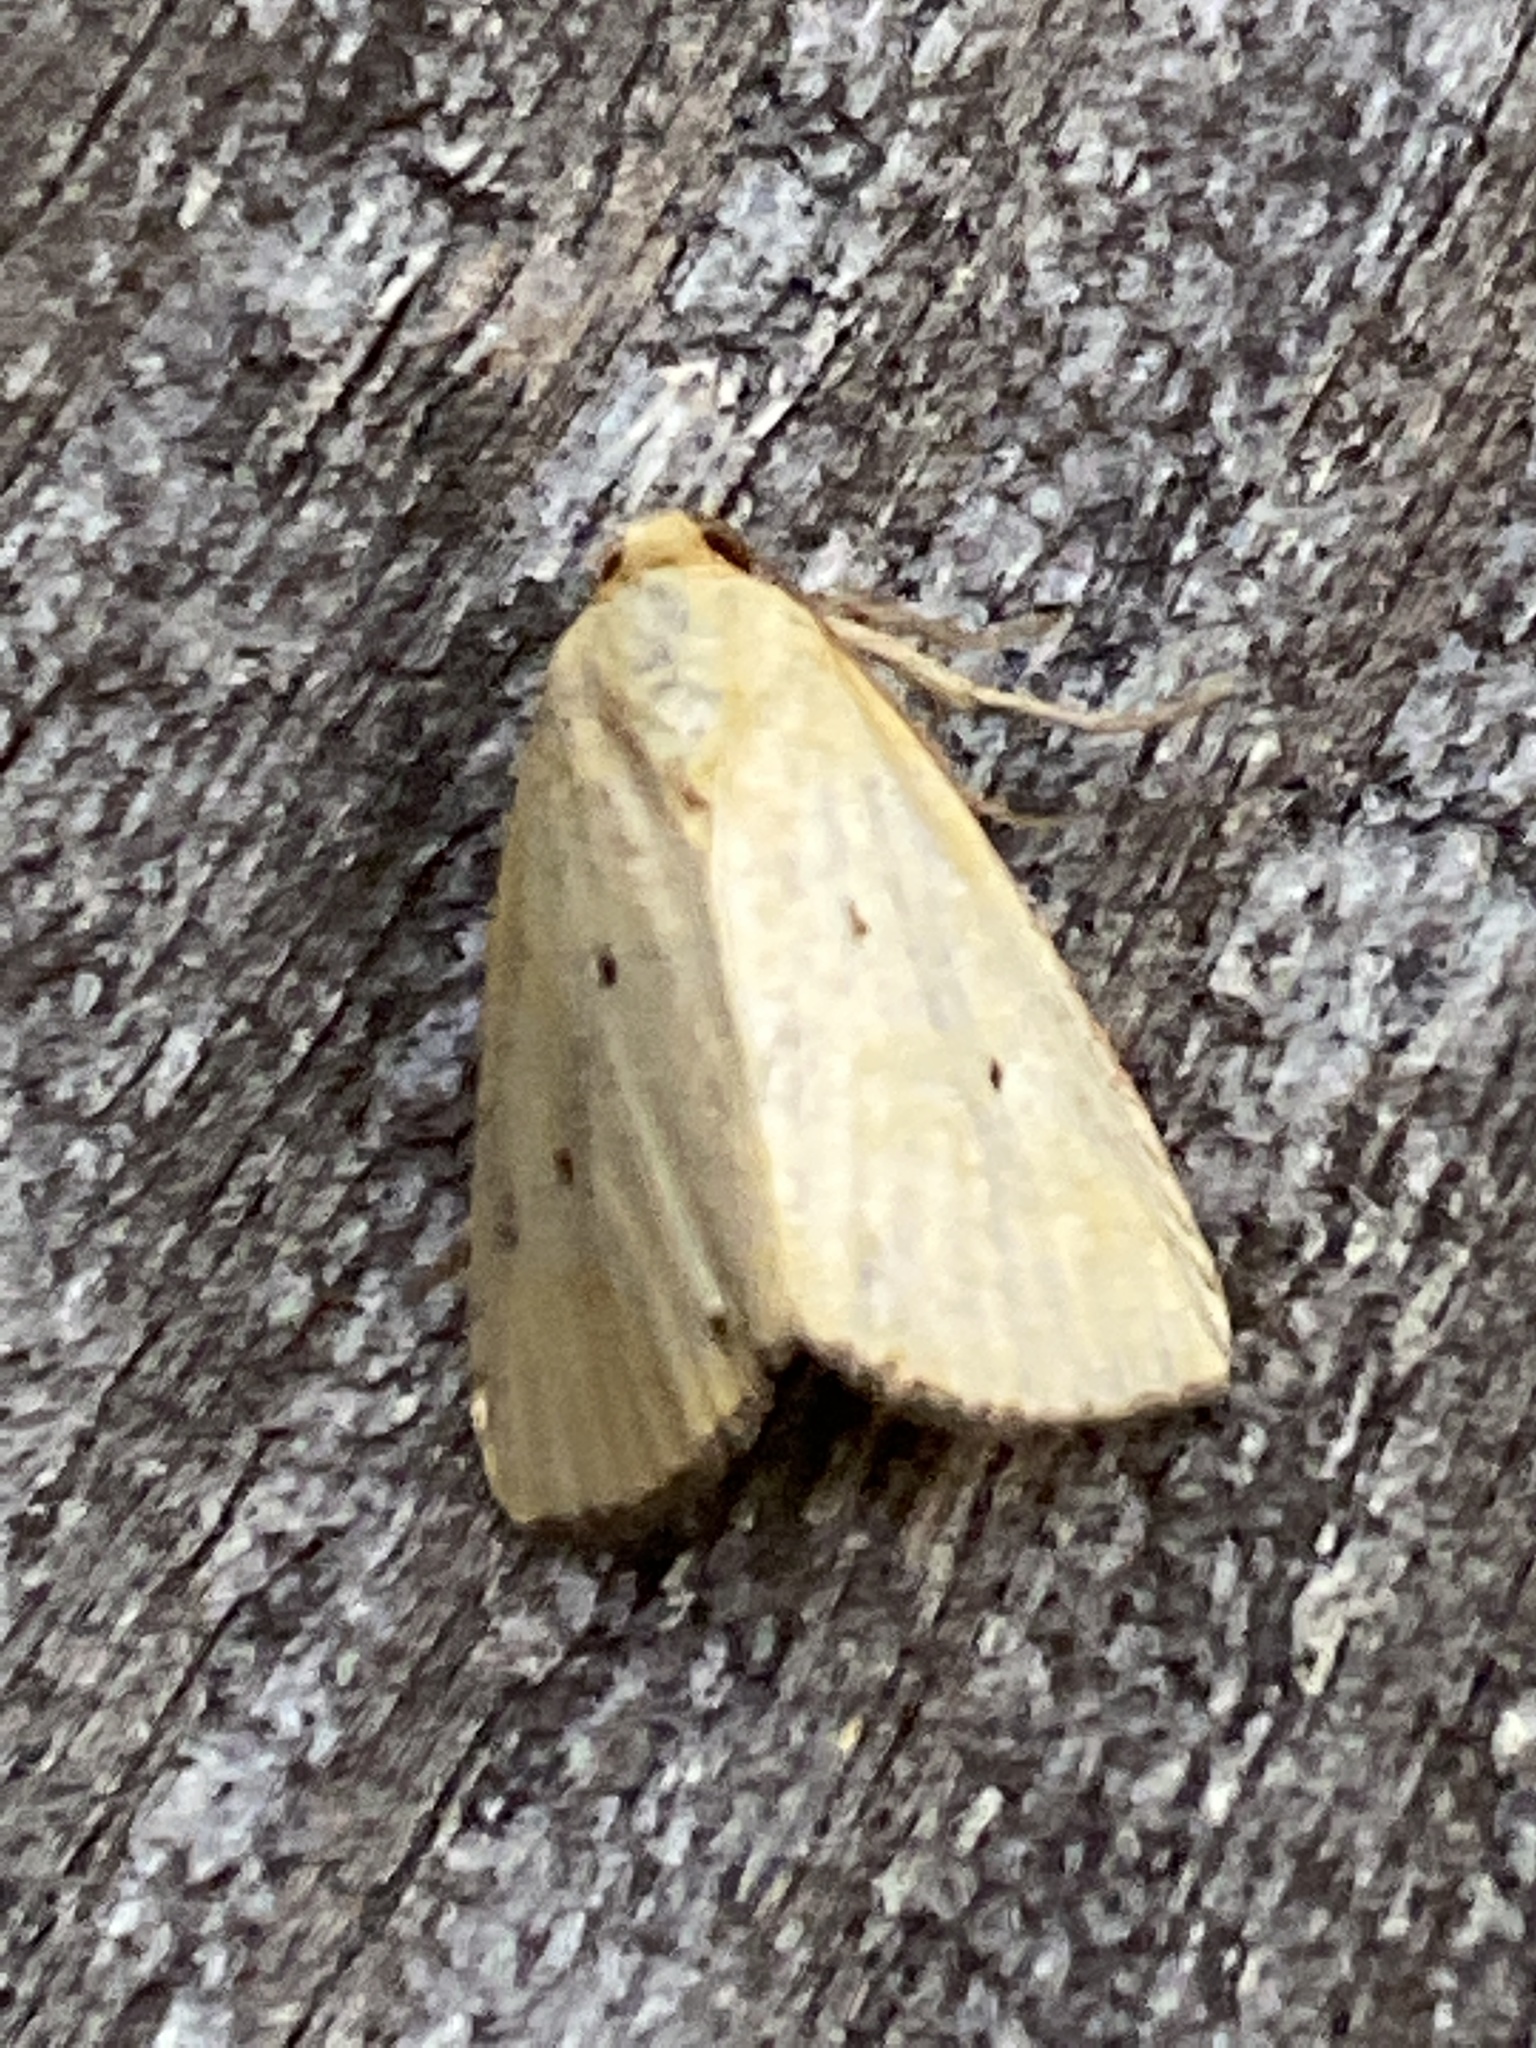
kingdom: Animalia
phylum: Arthropoda
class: Insecta
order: Lepidoptera
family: Noctuidae
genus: Marimatha
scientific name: Marimatha nigrofimbria
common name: Black-bordered lemon moth
